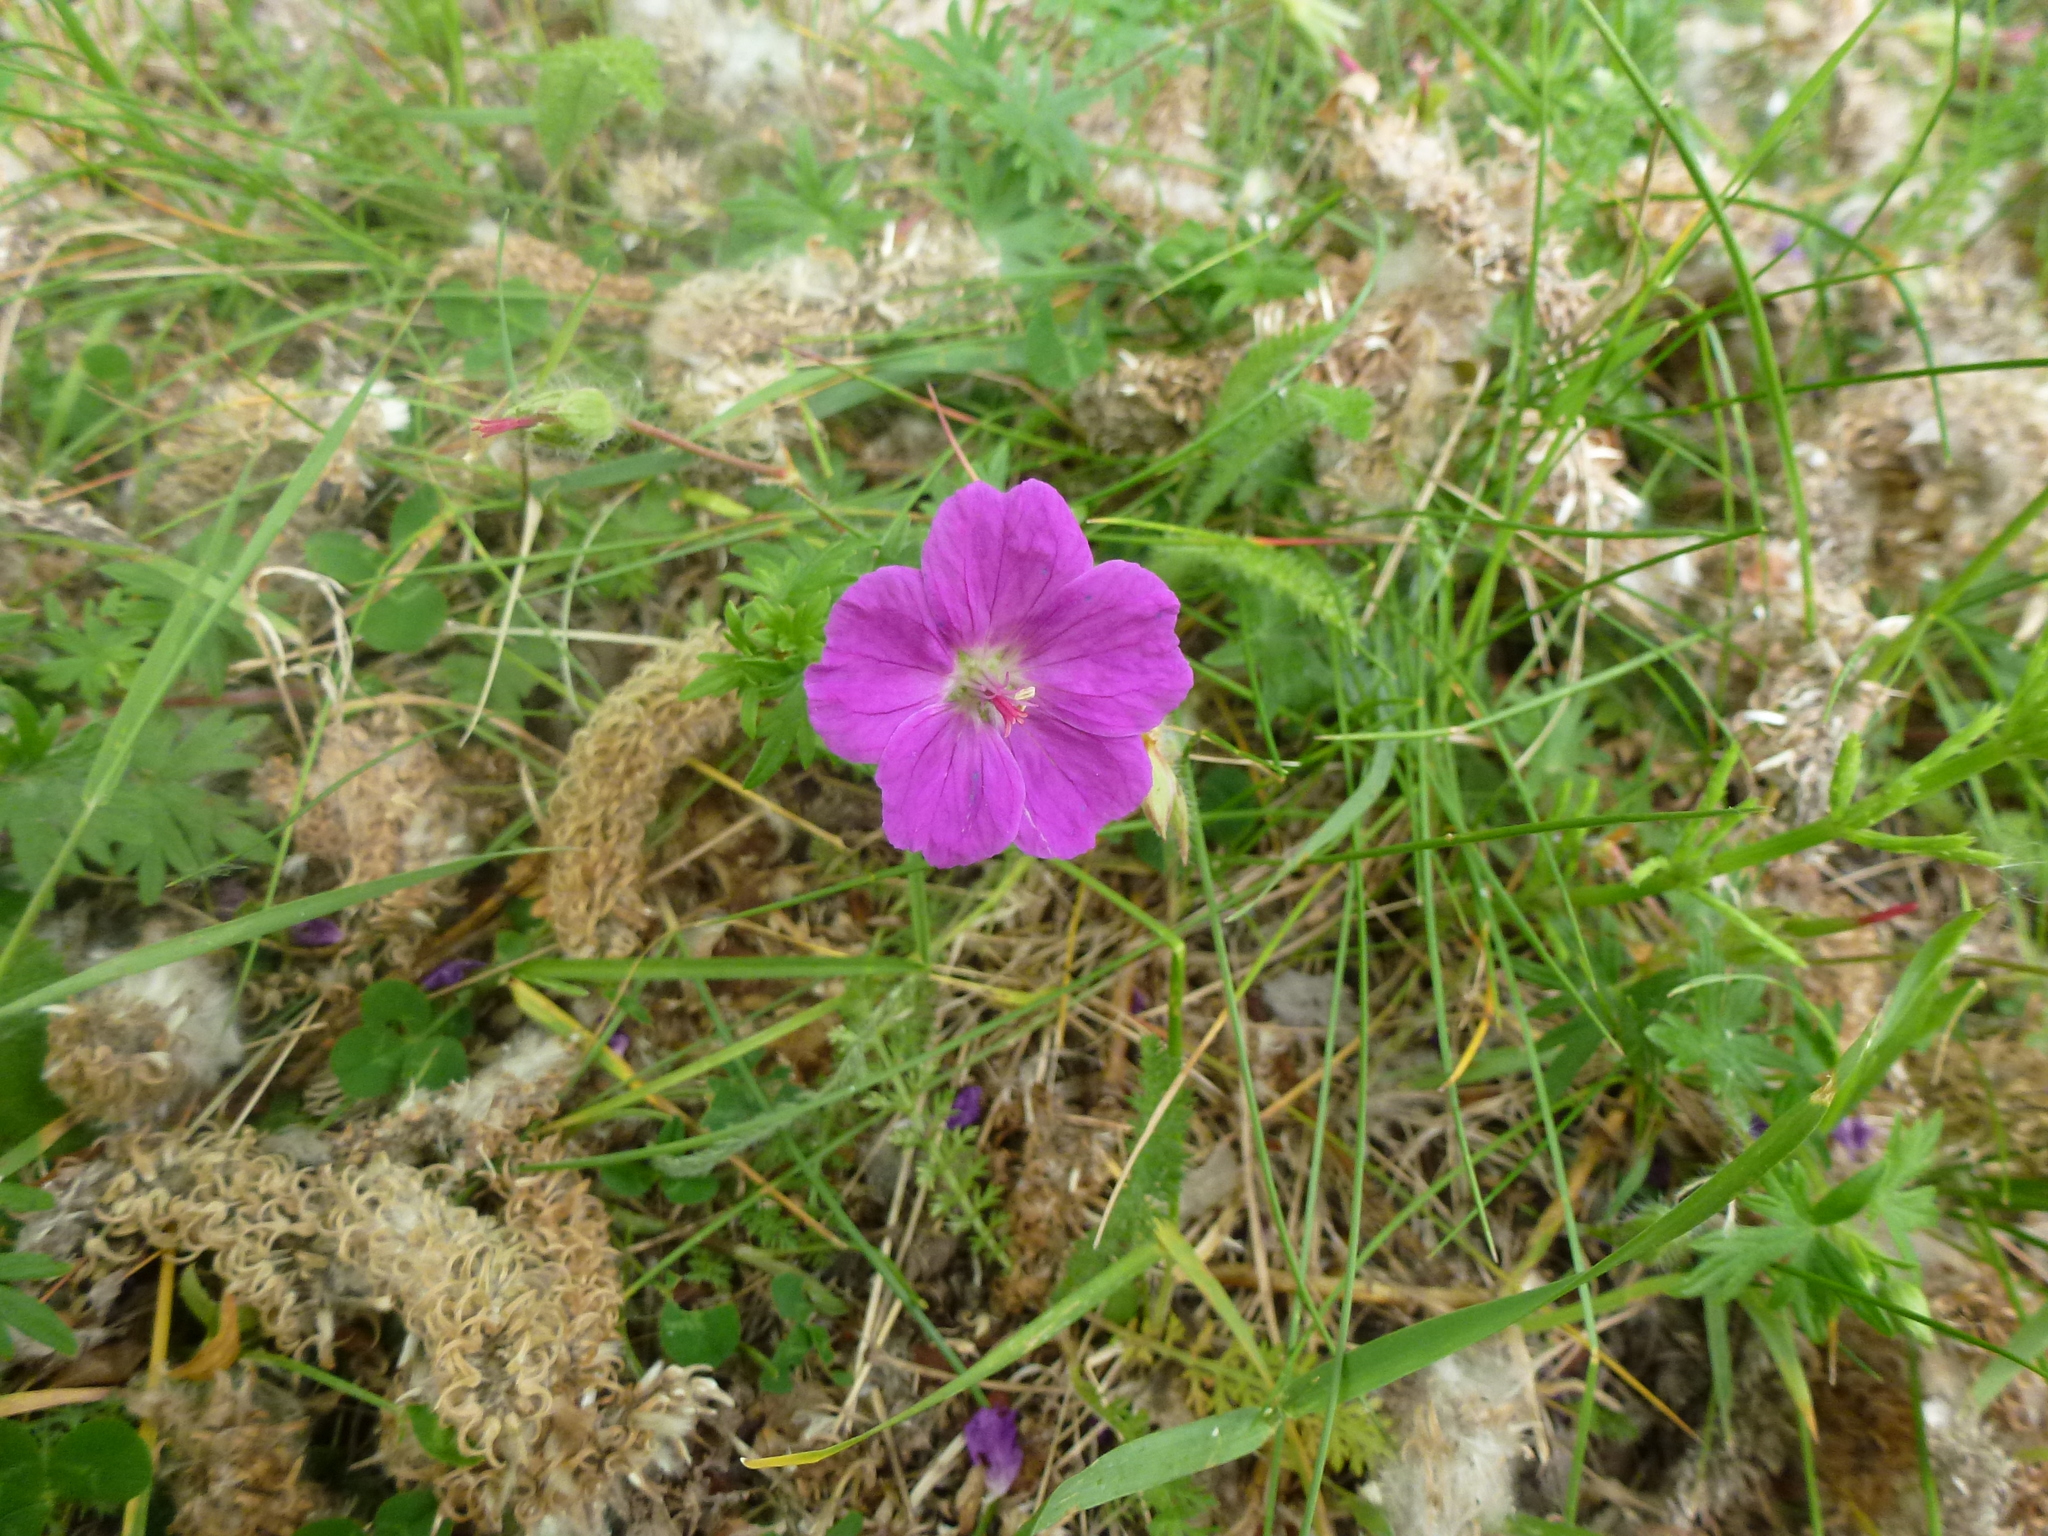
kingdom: Plantae
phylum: Tracheophyta
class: Magnoliopsida
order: Geraniales
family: Geraniaceae
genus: Geranium
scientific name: Geranium sanguineum
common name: Bloody crane's-bill
